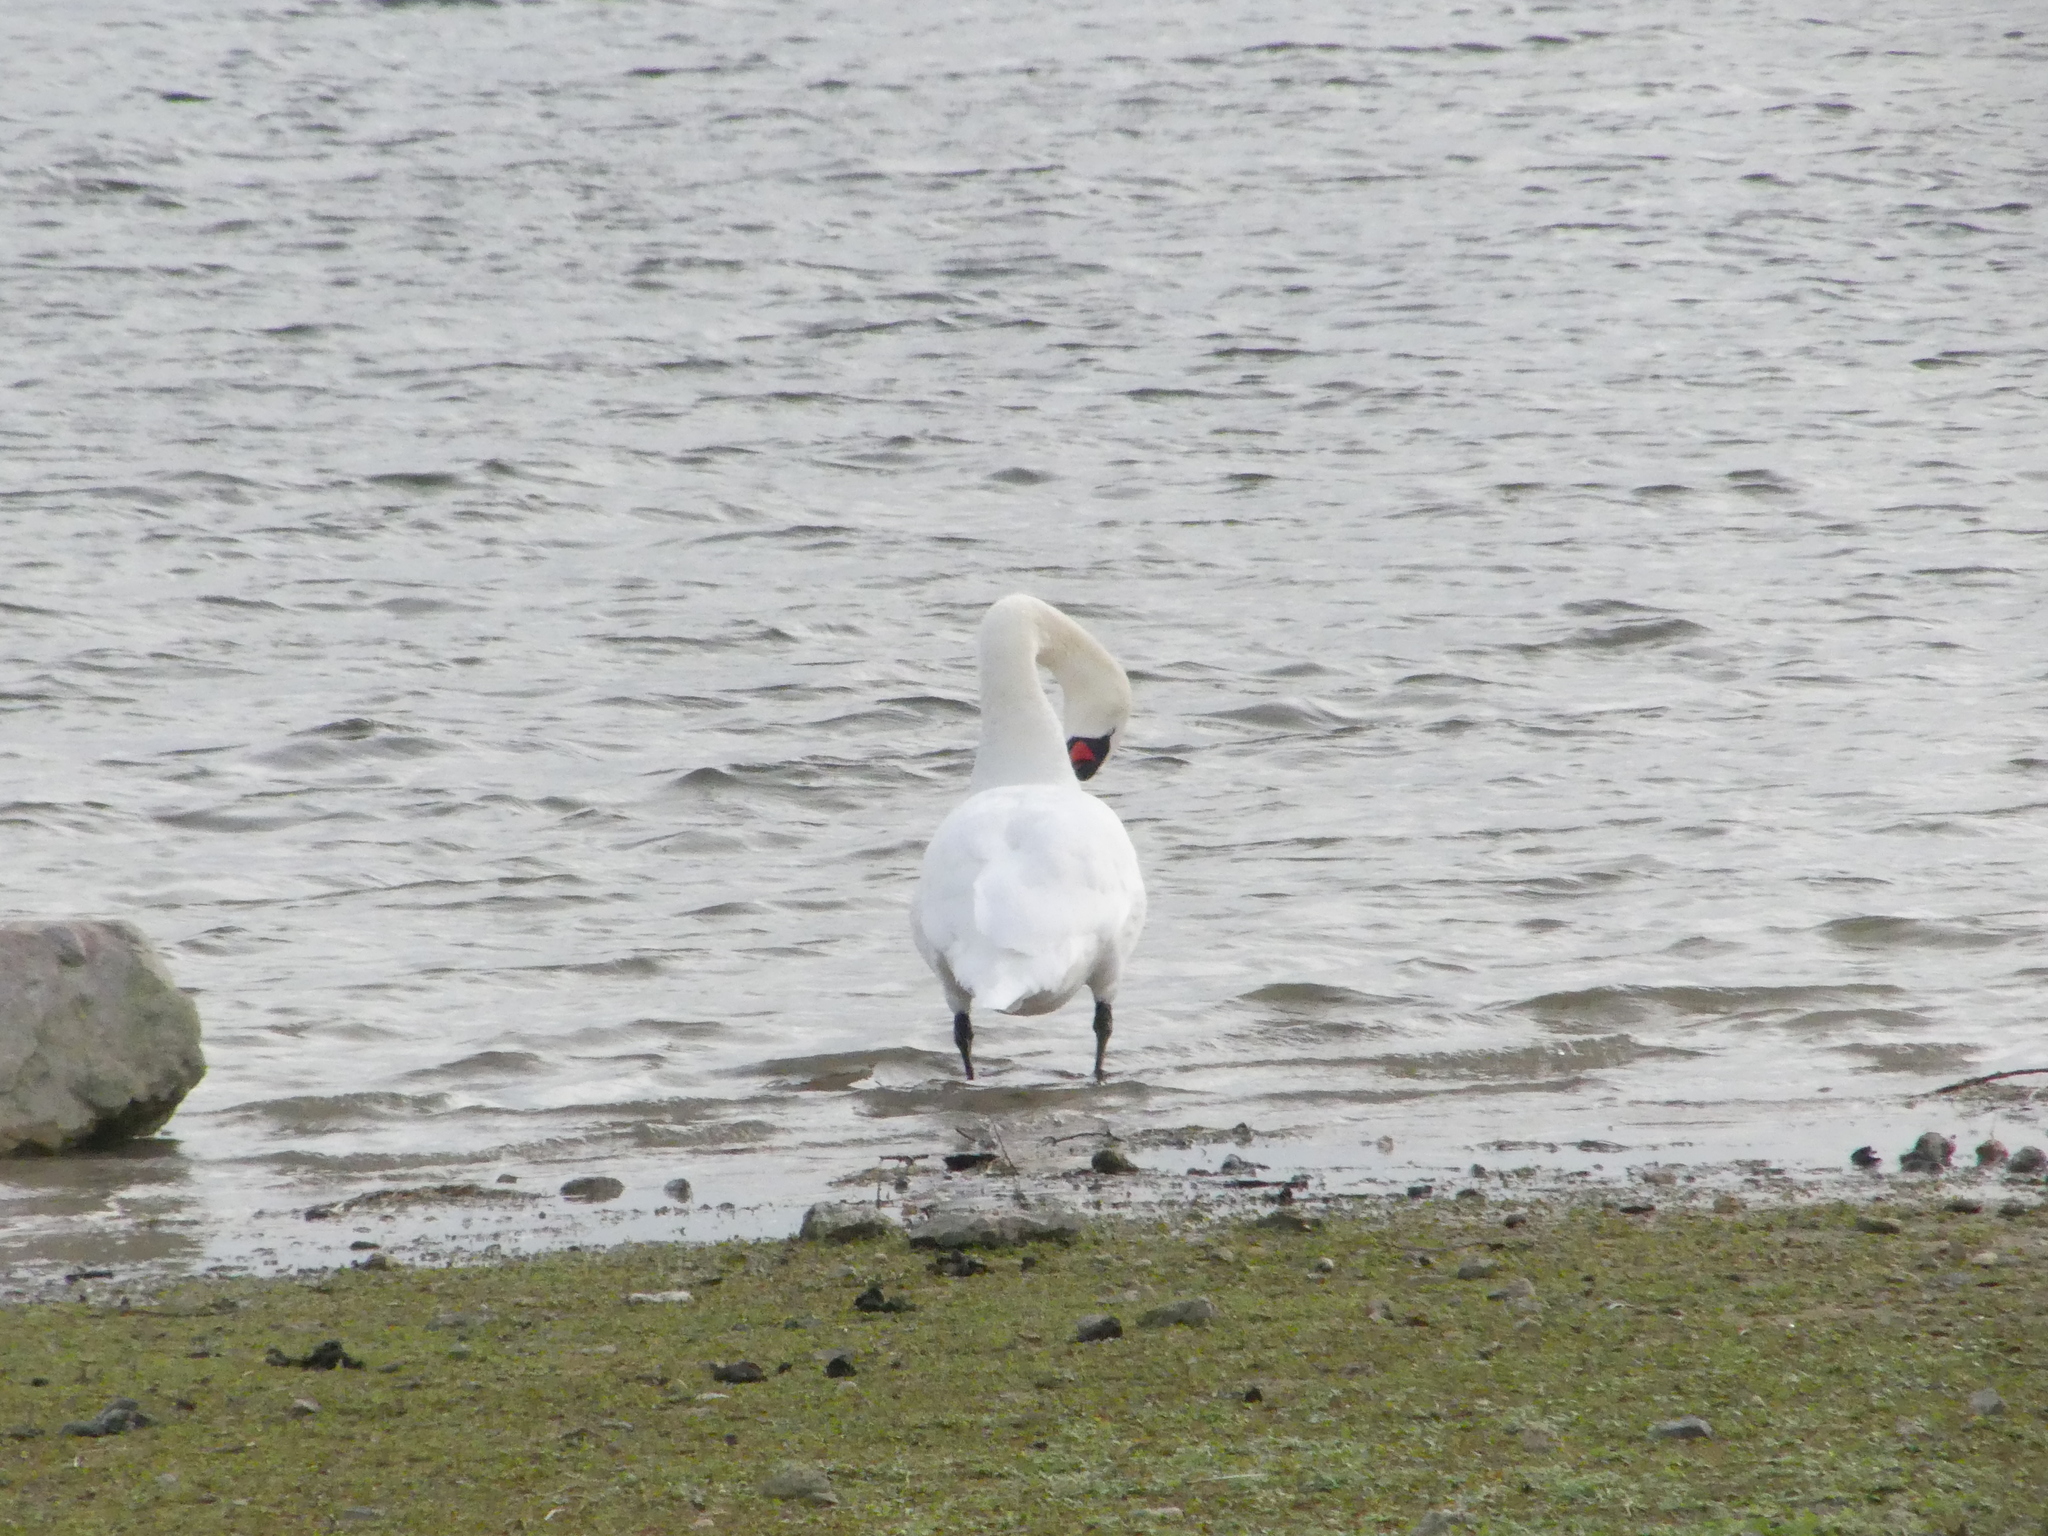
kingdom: Animalia
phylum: Chordata
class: Aves
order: Anseriformes
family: Anatidae
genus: Cygnus
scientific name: Cygnus olor
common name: Mute swan
